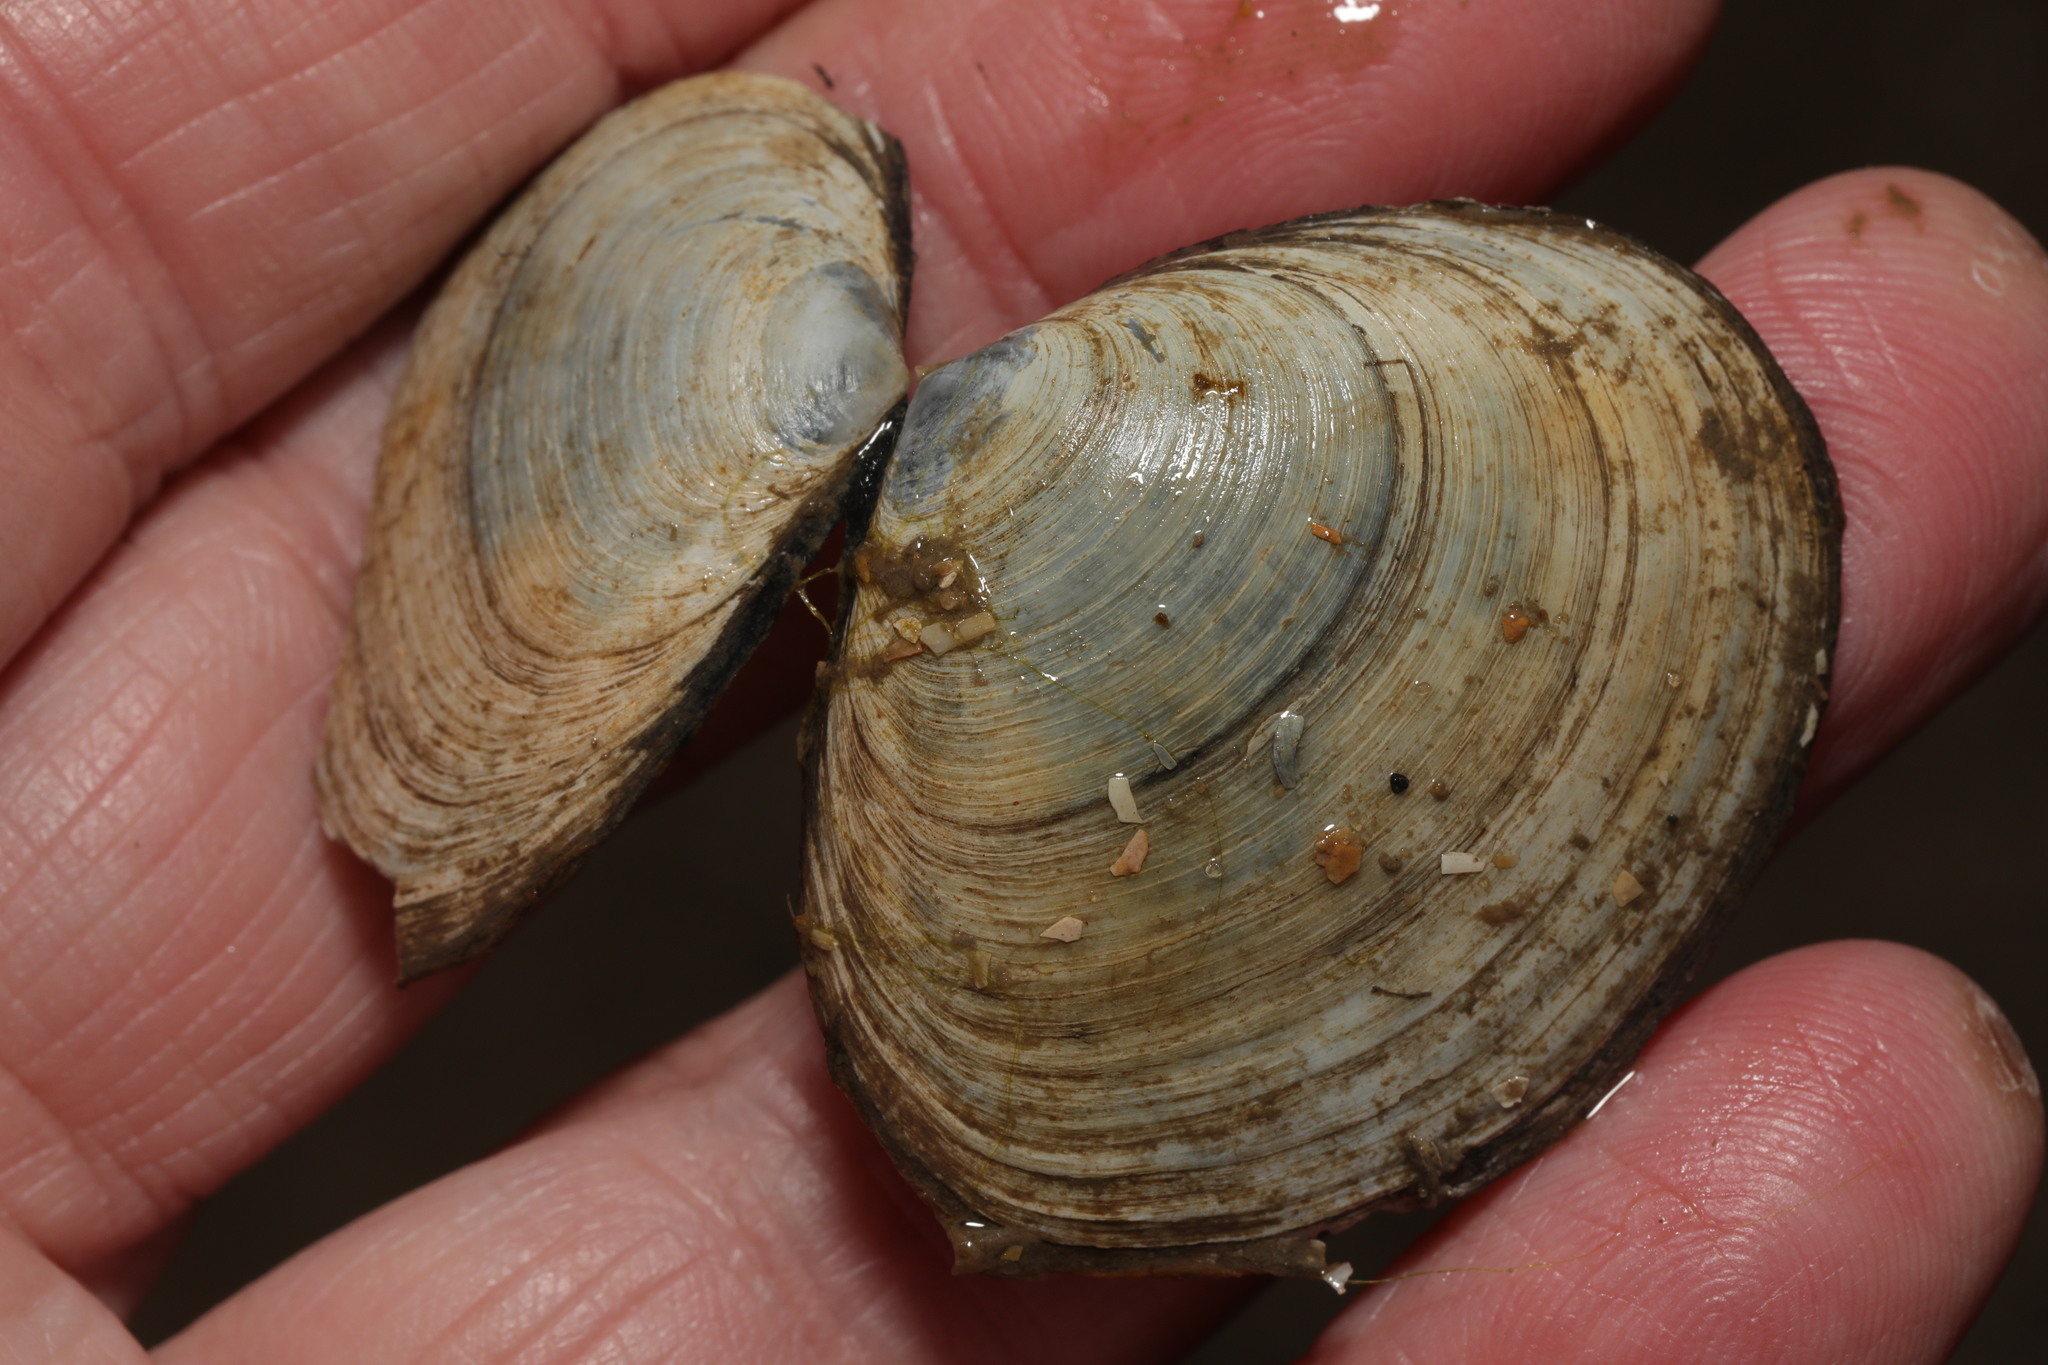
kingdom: Animalia
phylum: Mollusca
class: Bivalvia
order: Cardiida
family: Semelidae
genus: Scrobicularia
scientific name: Scrobicularia plana
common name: Peppery furrow shell
